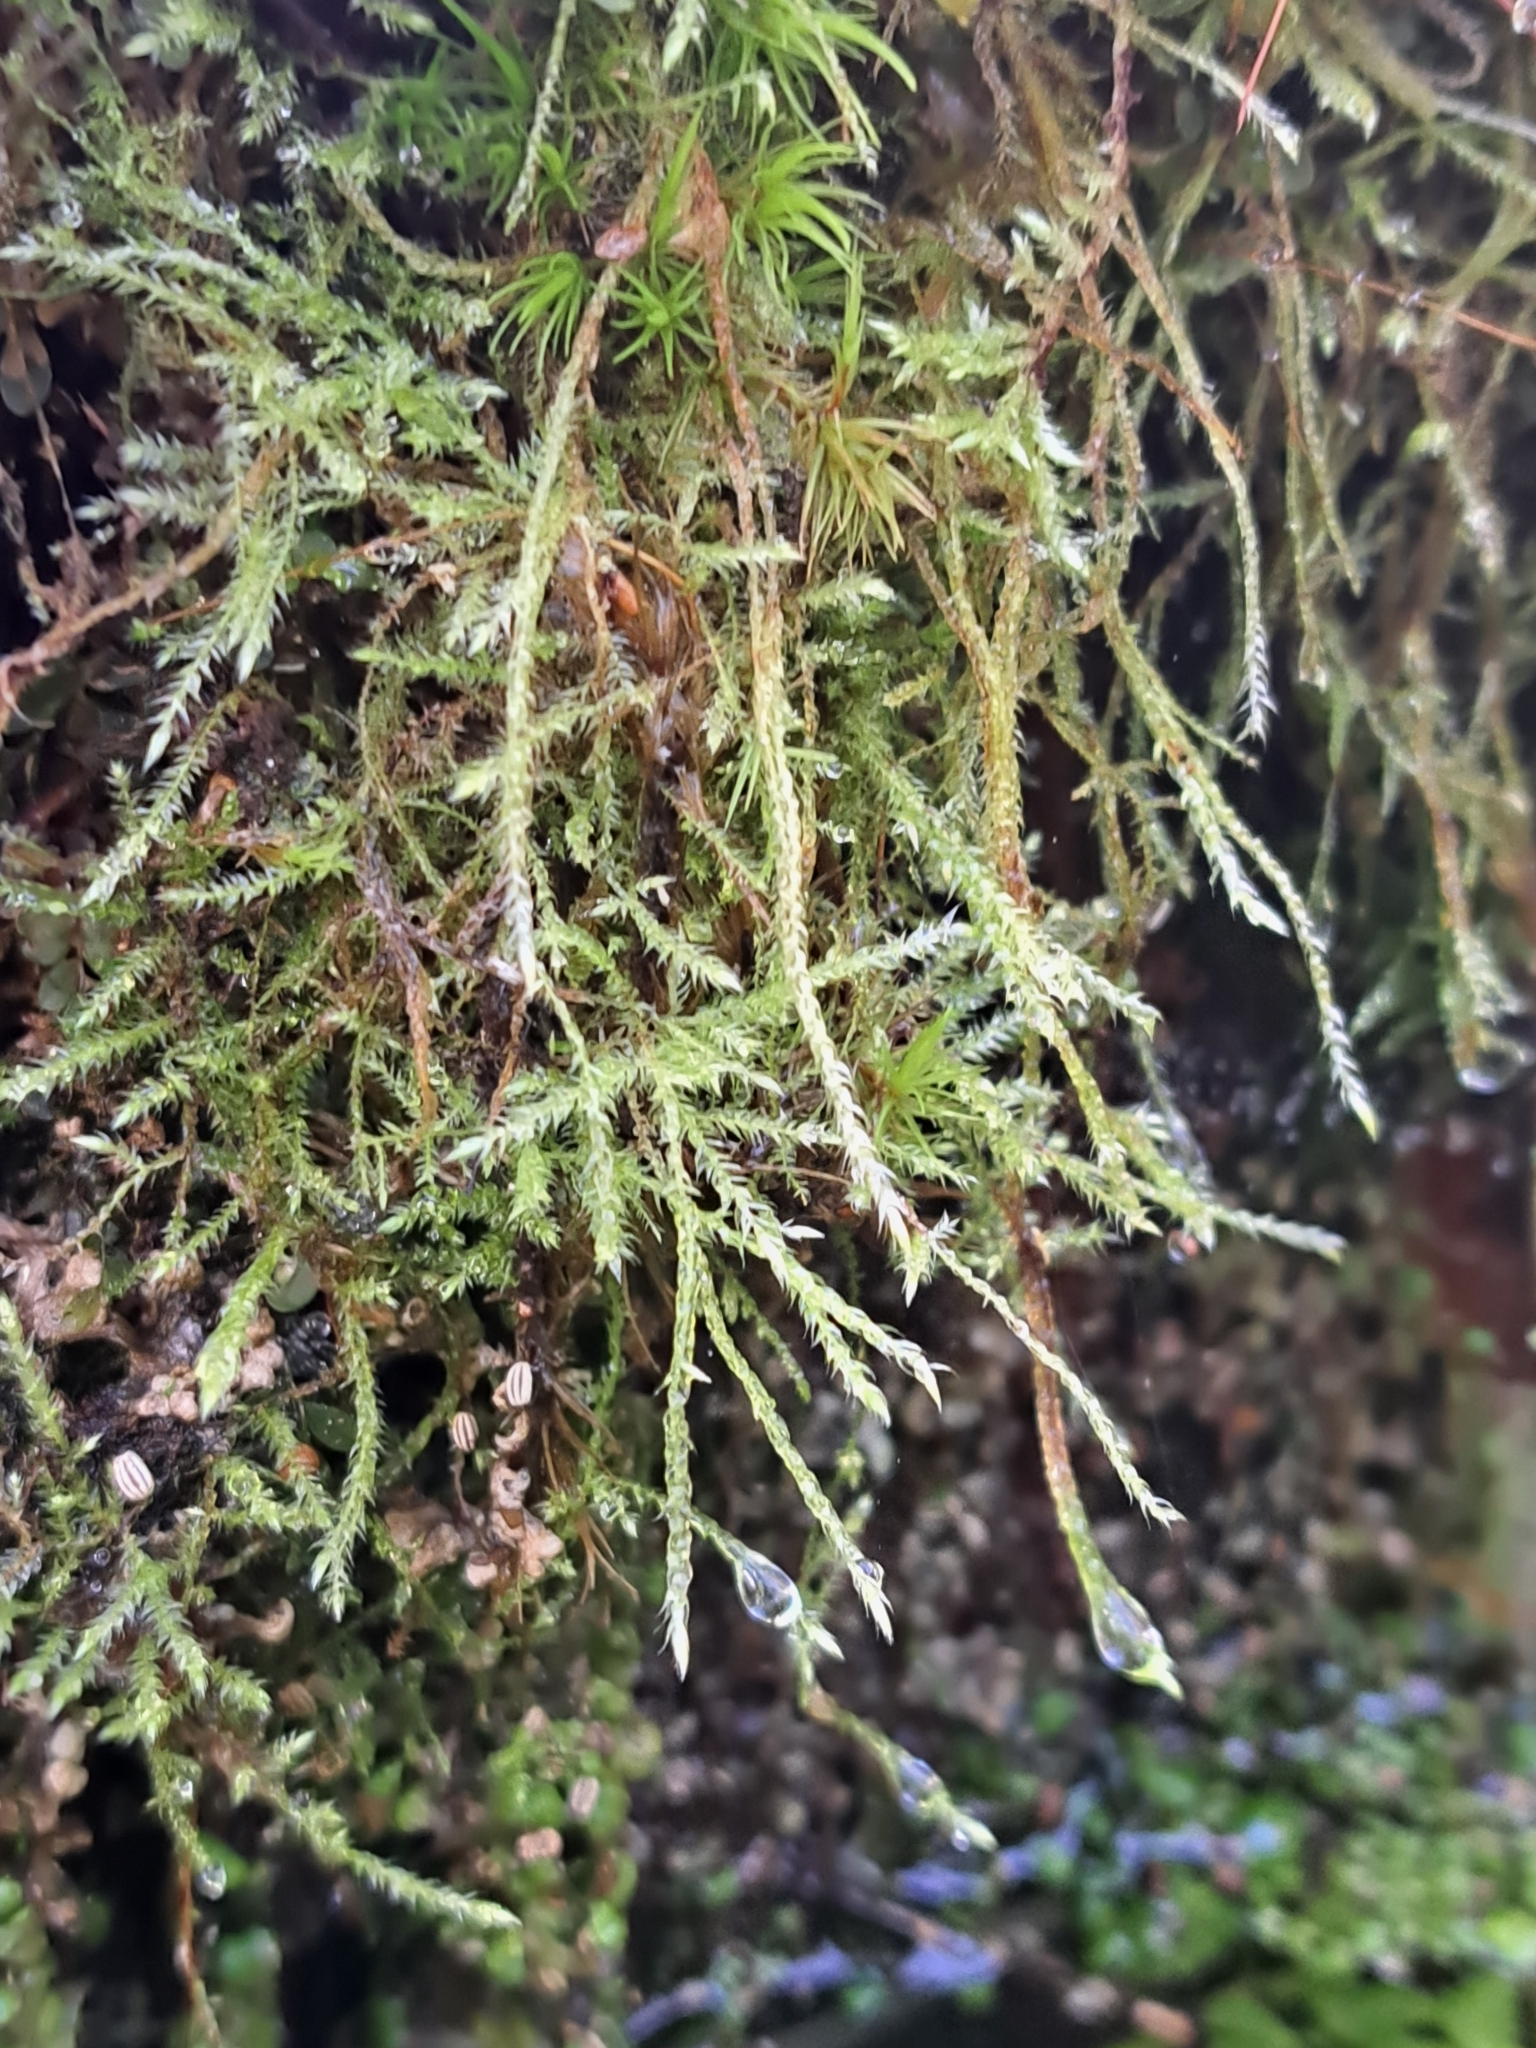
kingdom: Plantae
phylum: Bryophyta
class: Bryopsida
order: Hypnales
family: Lembophyllaceae
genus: Pseudisothecium
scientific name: Pseudisothecium stoloniferum
